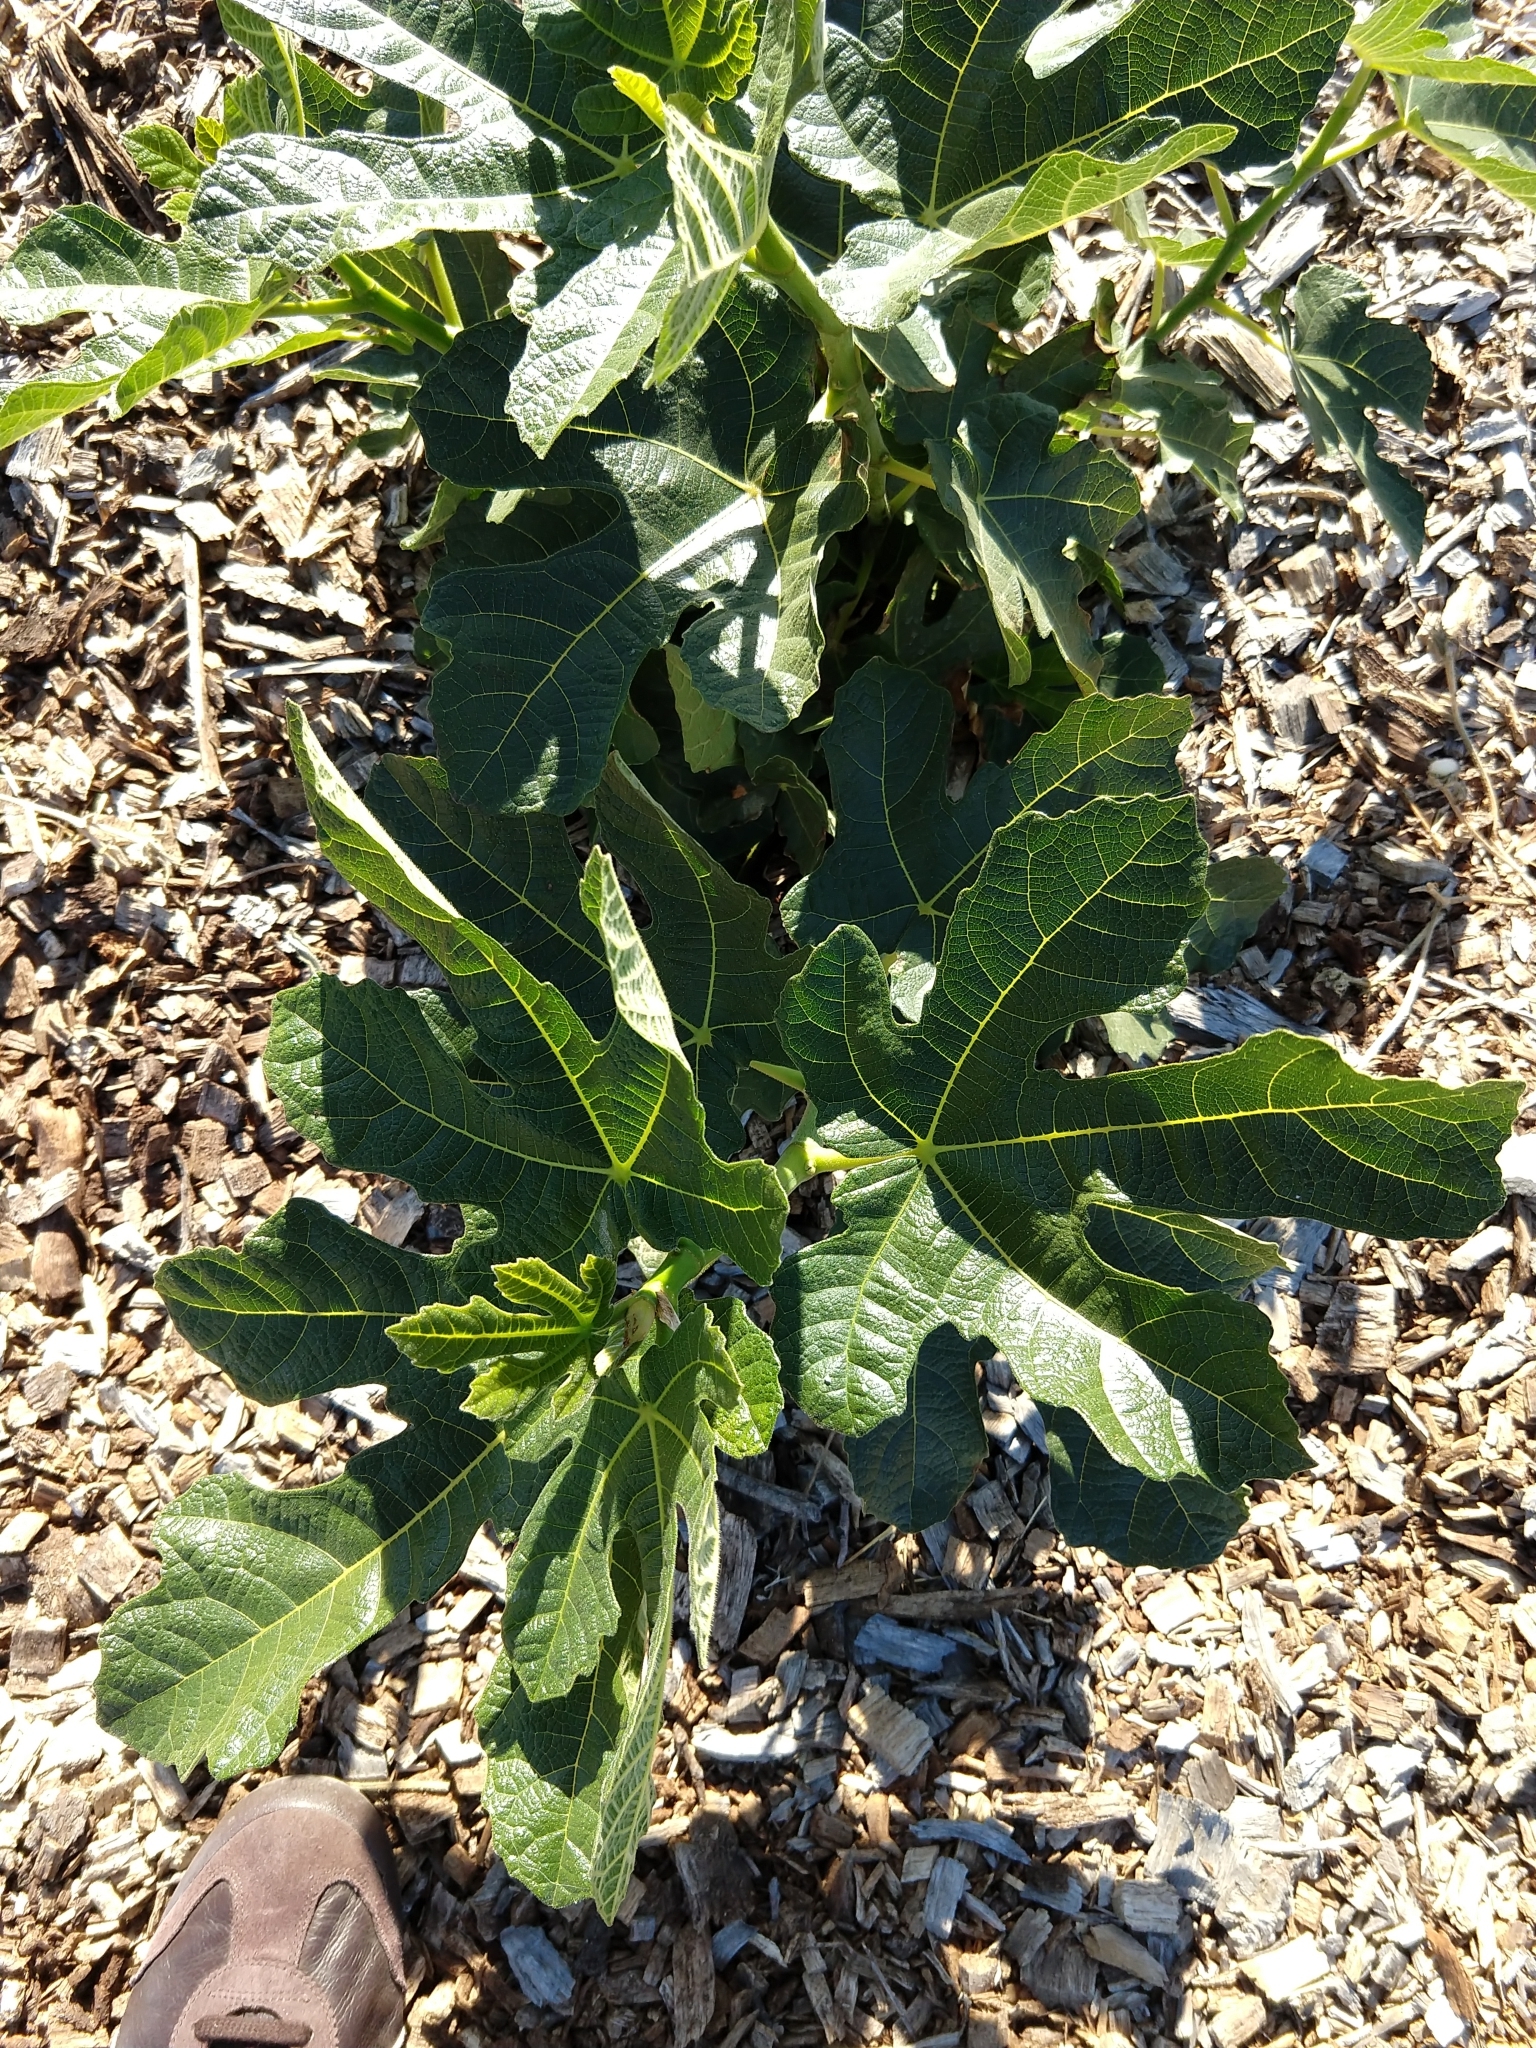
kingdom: Plantae
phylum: Tracheophyta
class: Magnoliopsida
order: Rosales
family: Moraceae
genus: Ficus
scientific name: Ficus carica
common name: Fig
